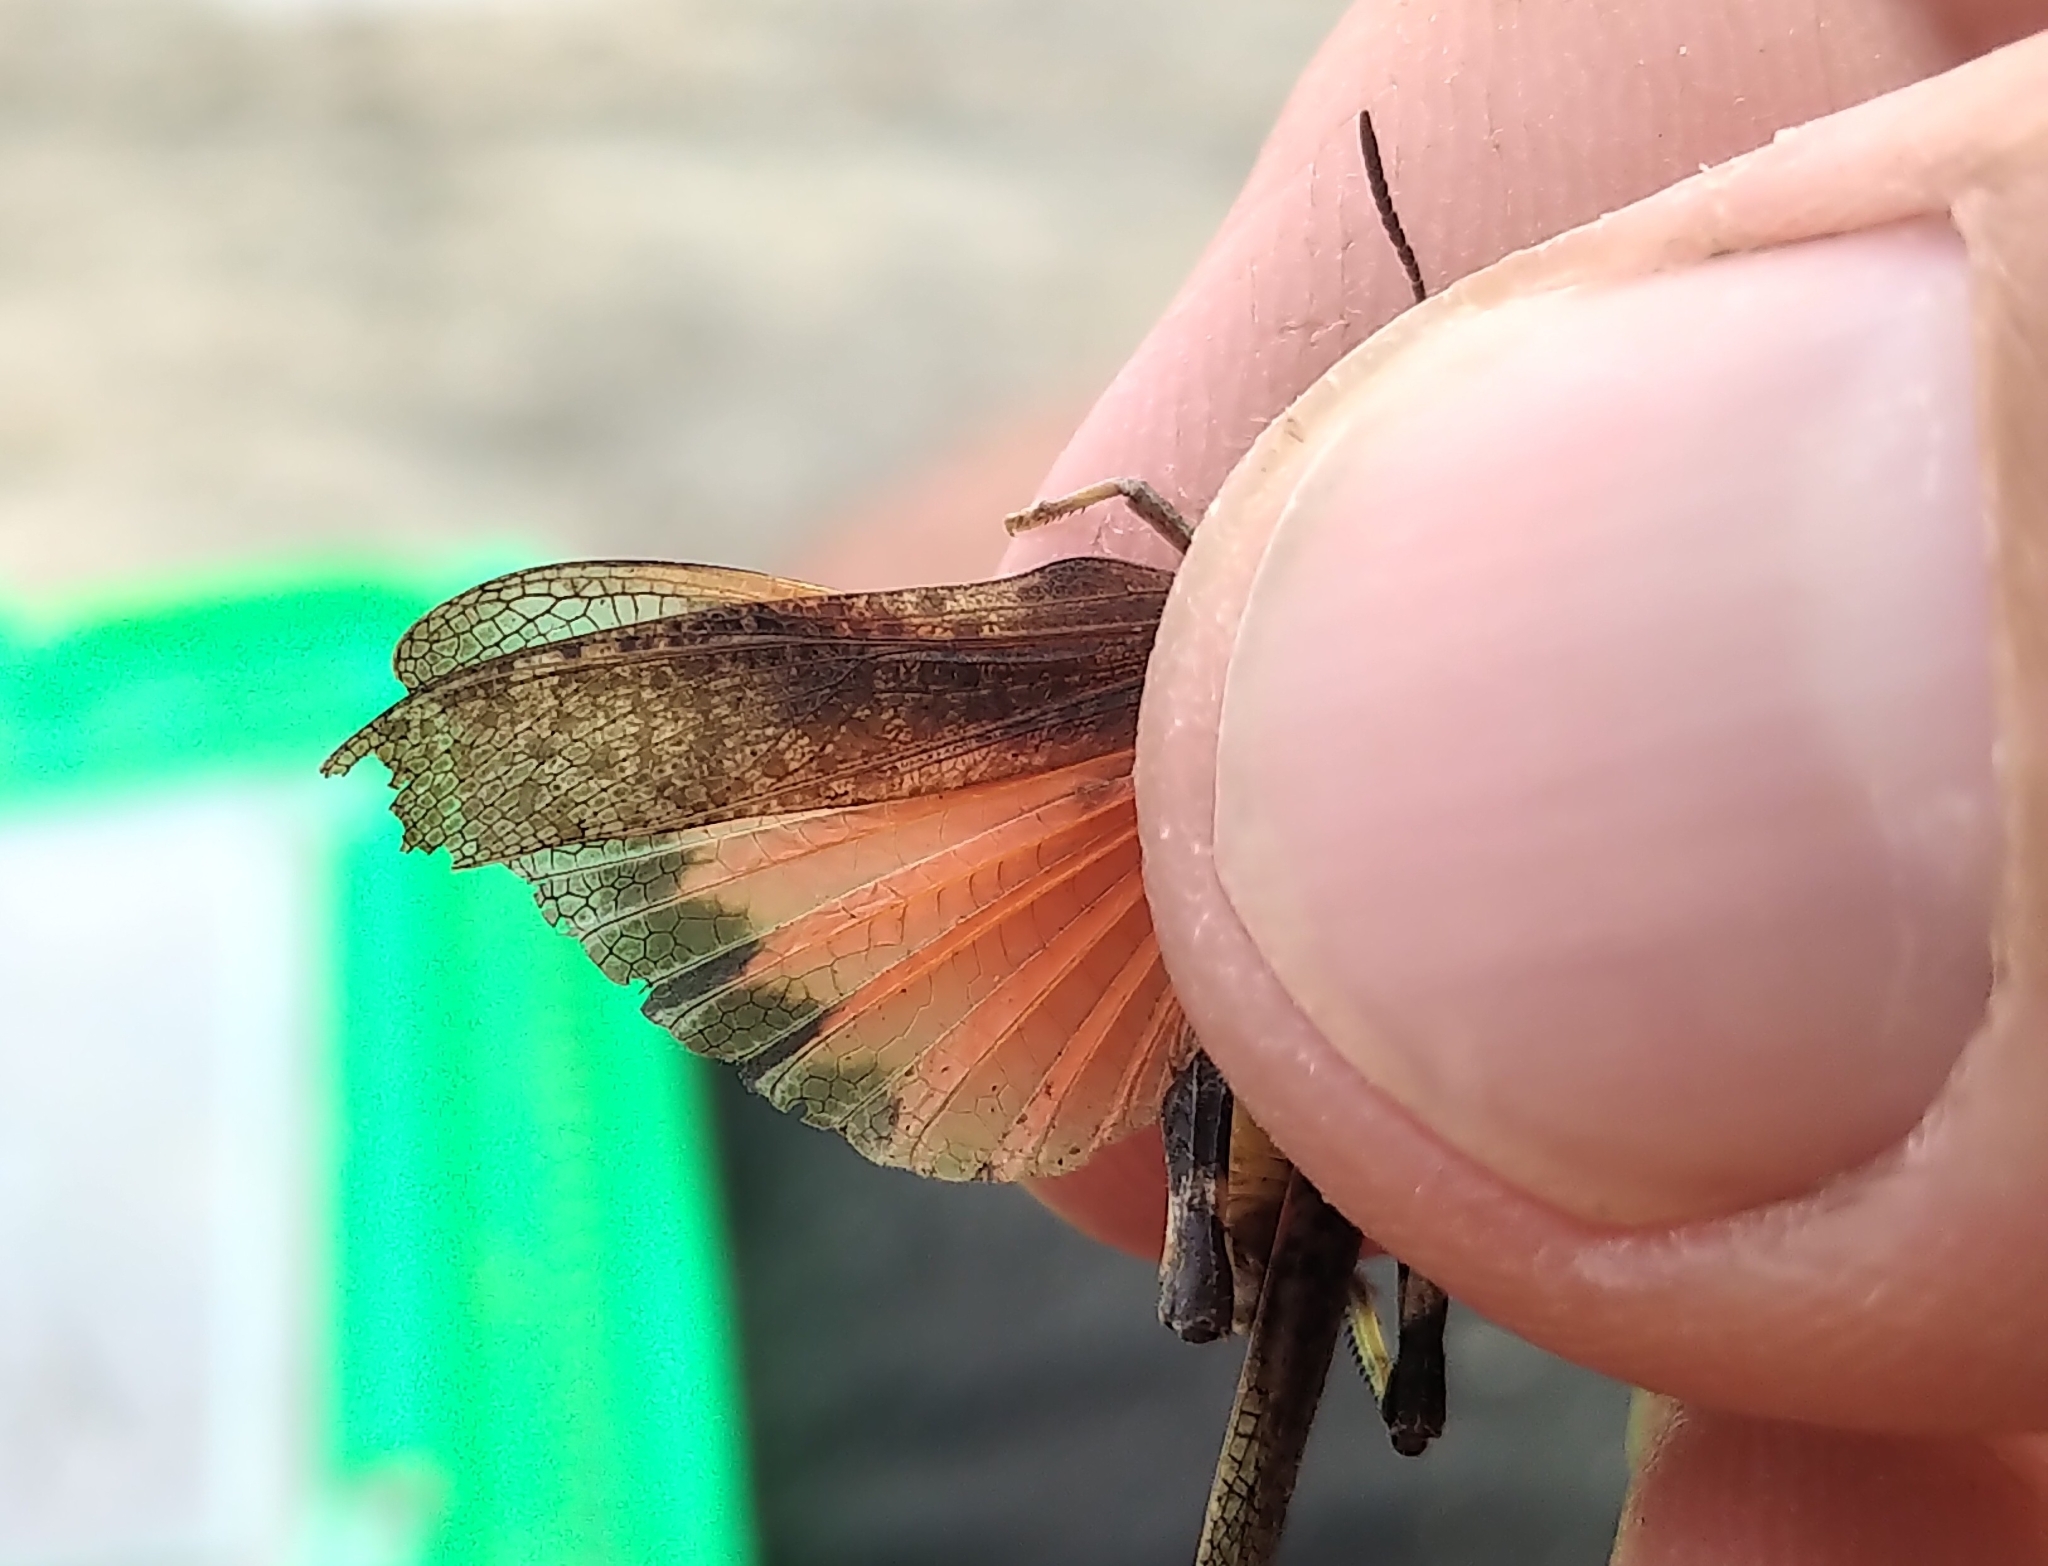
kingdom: Animalia
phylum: Arthropoda
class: Insecta
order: Orthoptera
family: Acrididae
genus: Arphia
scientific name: Arphia conspersa
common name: Speckle-winged rangeland grasshopper
